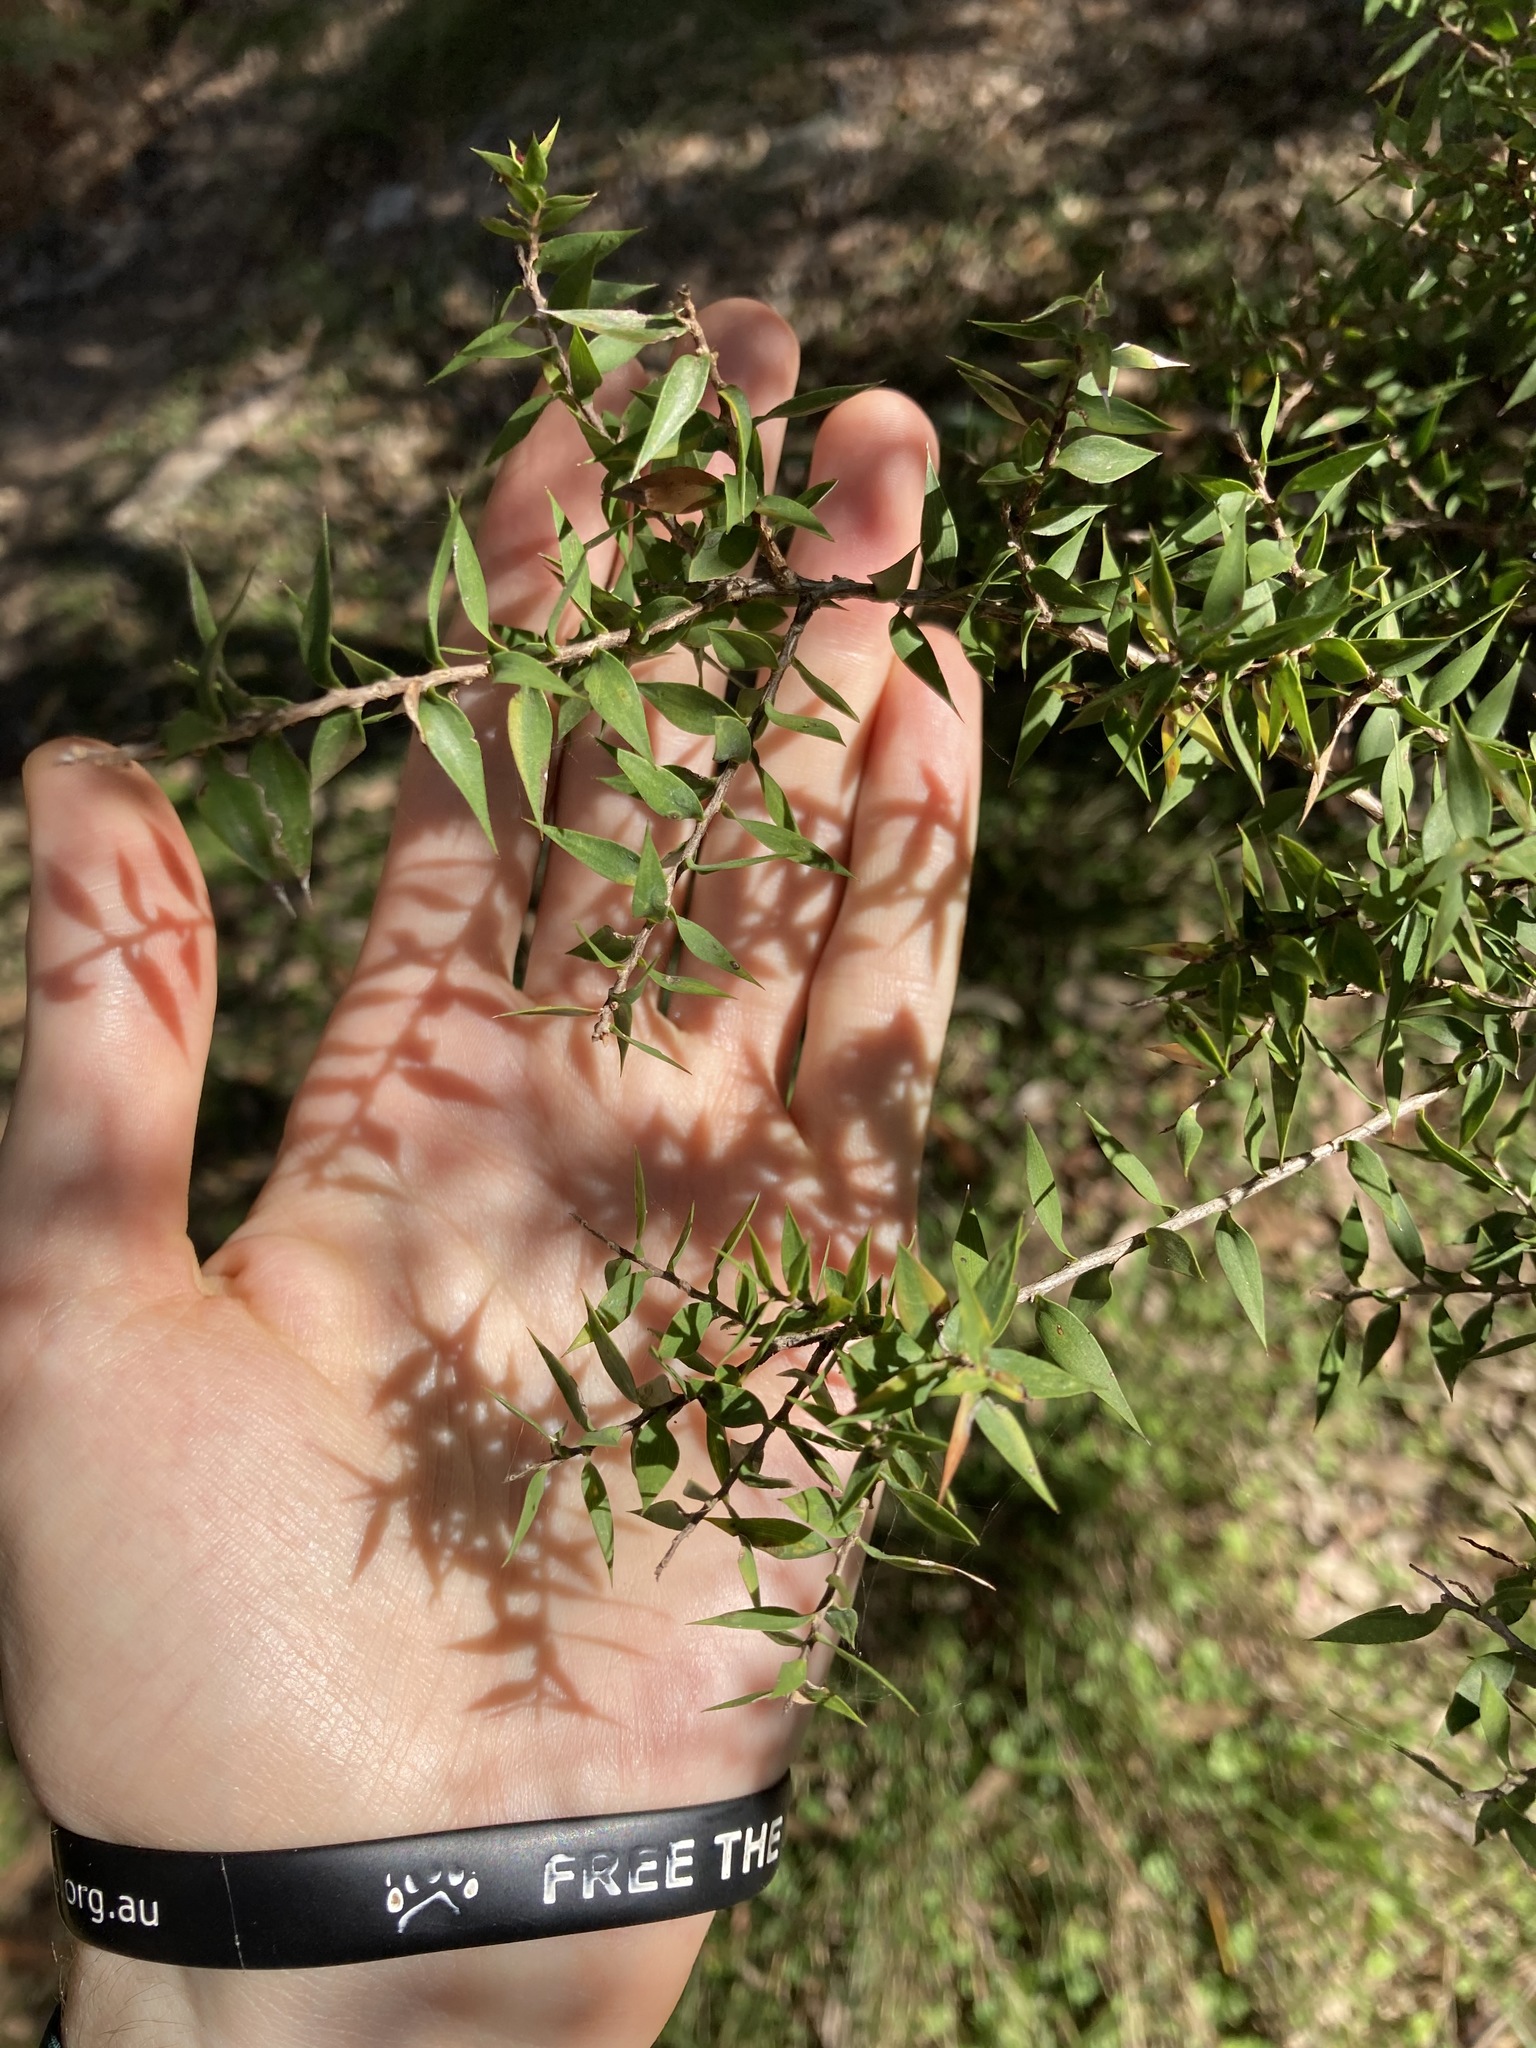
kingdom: Plantae
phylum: Tracheophyta
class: Magnoliopsida
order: Myrtales
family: Myrtaceae
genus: Melaleuca
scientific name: Melaleuca styphelioides
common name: Prickly paperbark
